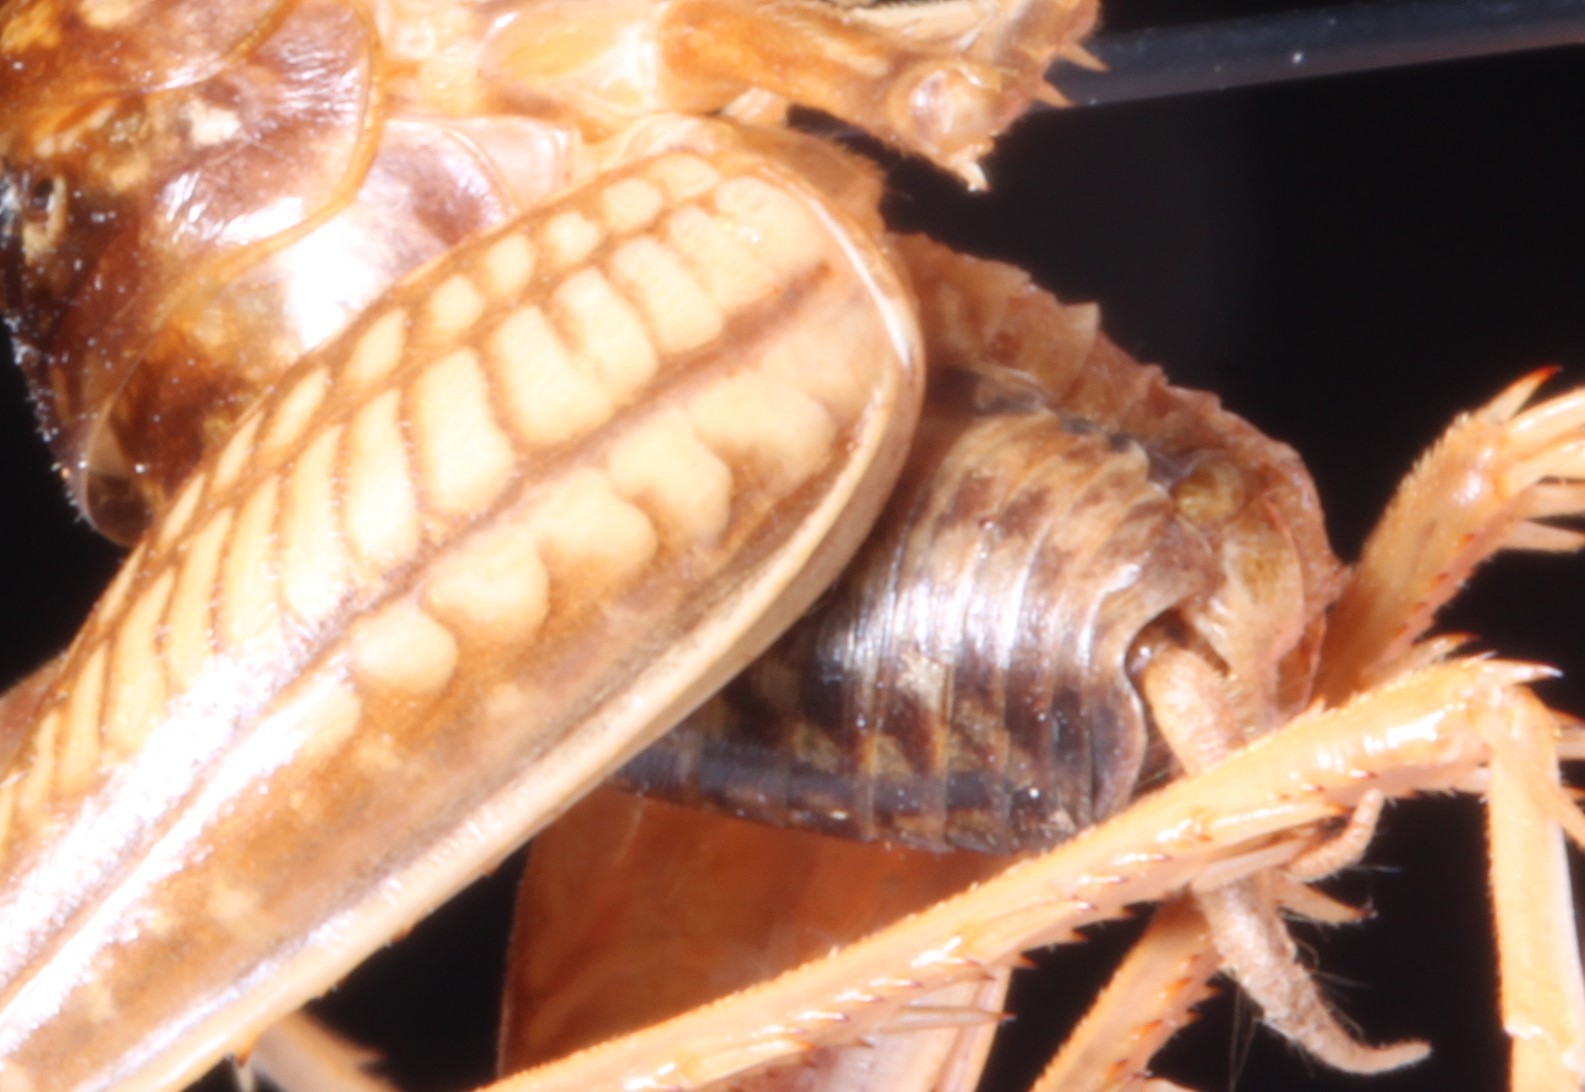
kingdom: Animalia
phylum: Arthropoda
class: Insecta
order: Orthoptera
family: Rhaphidophoridae
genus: Ceuthophilus
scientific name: Ceuthophilus maculatus
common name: Spotted camel cricket
